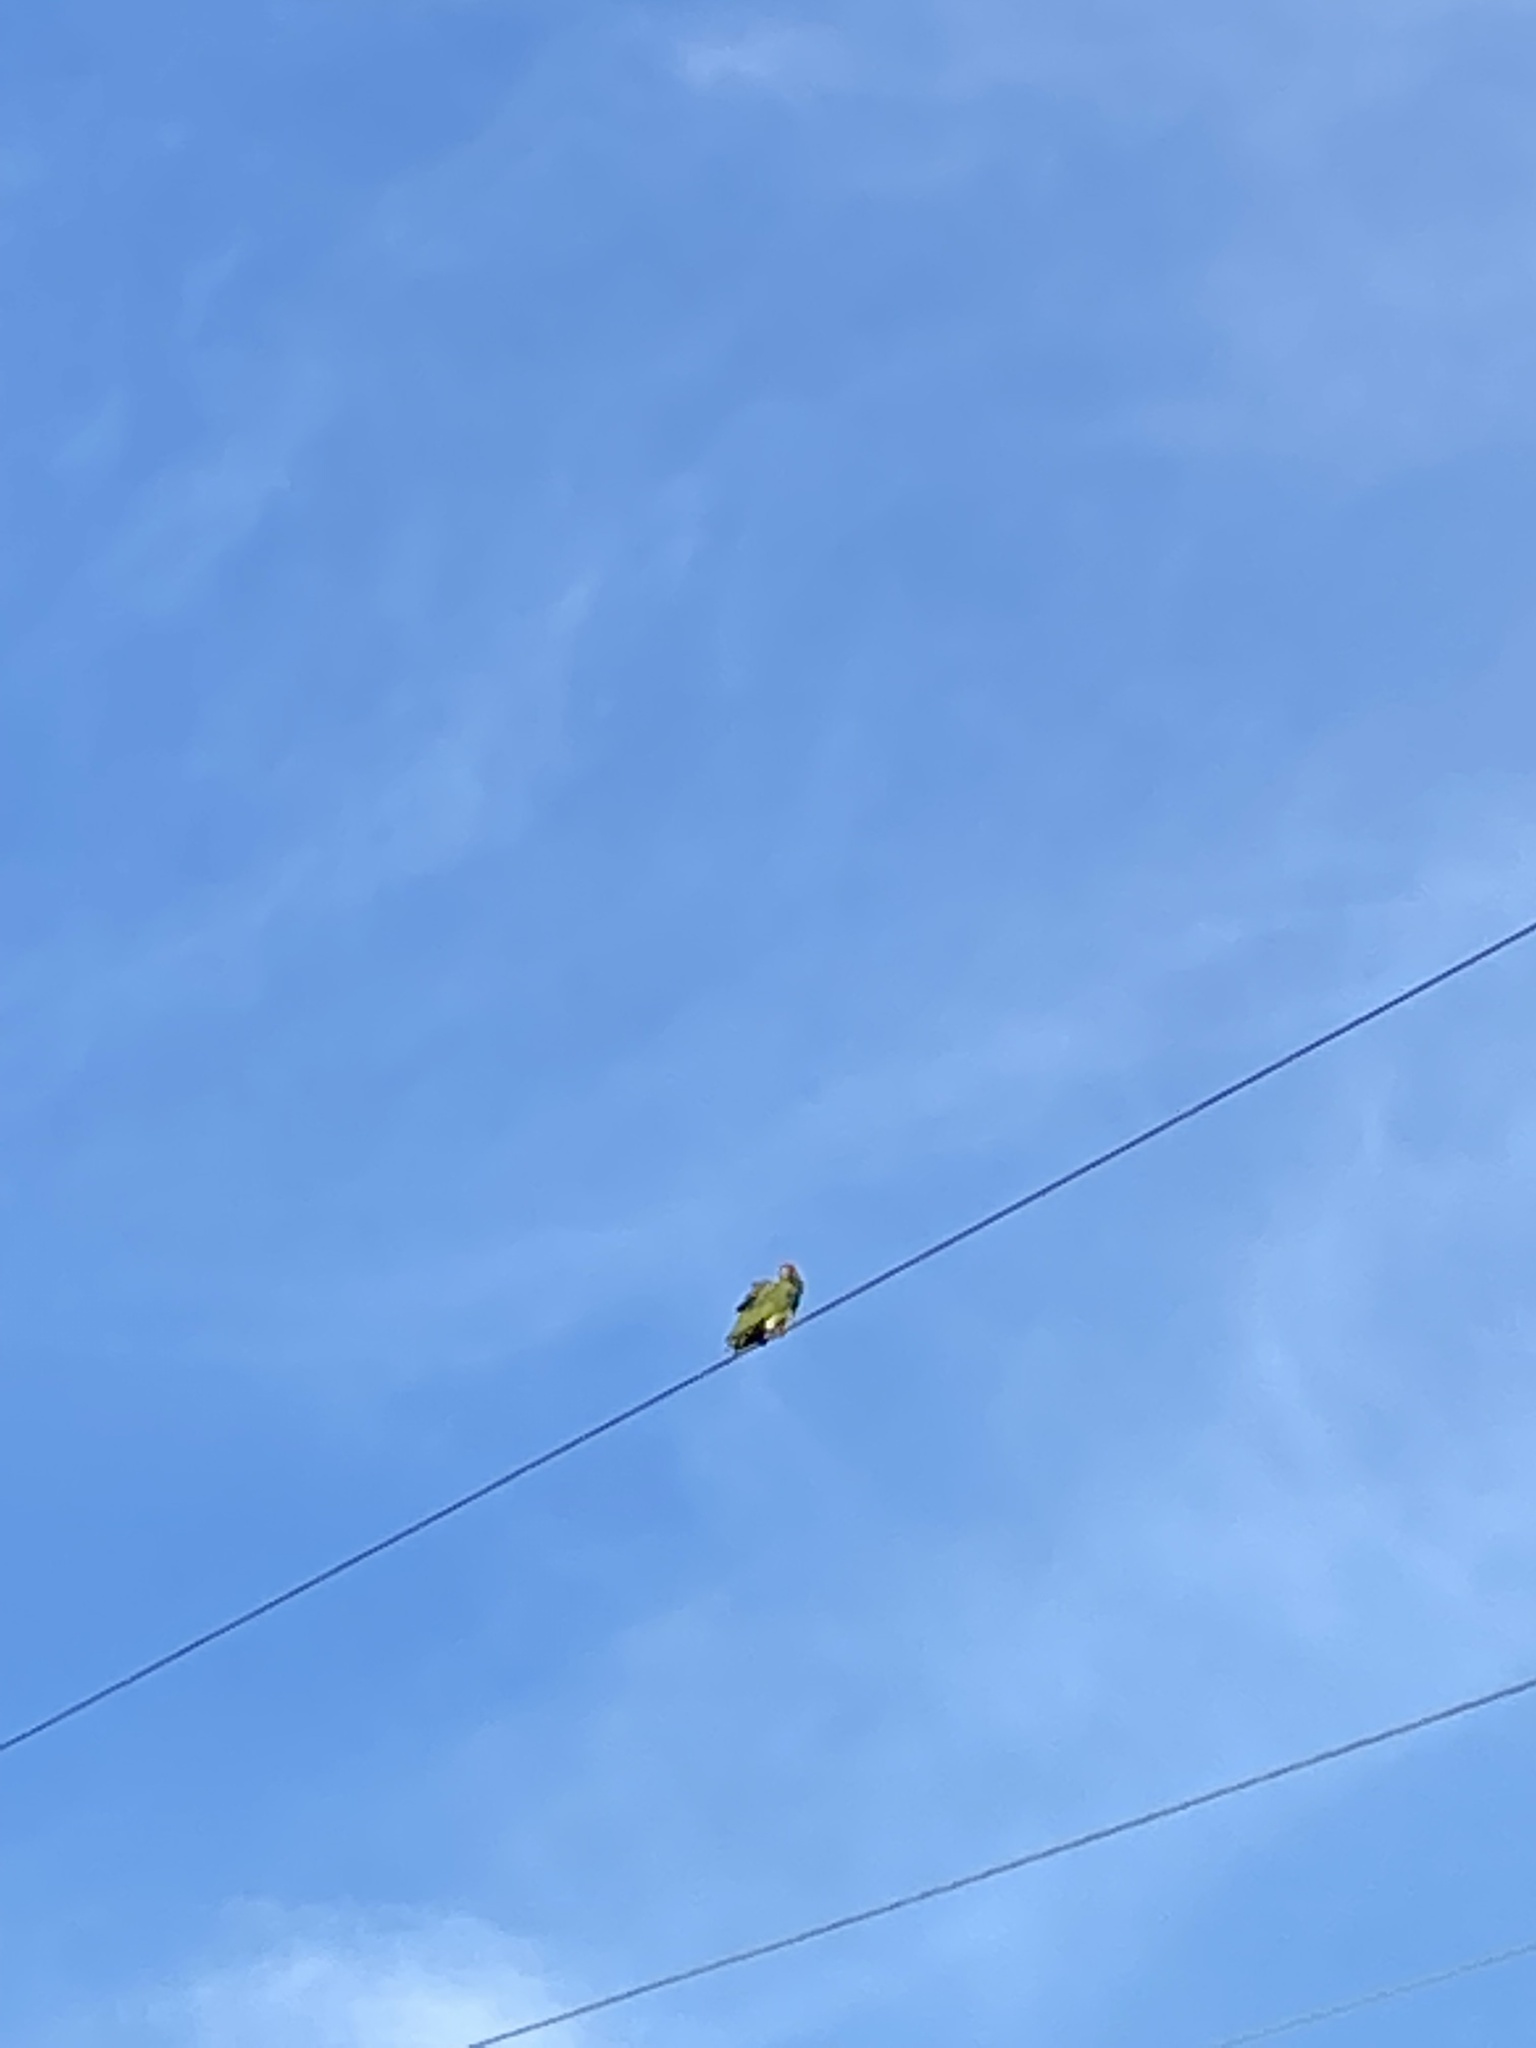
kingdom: Animalia
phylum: Chordata
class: Aves
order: Psittaciformes
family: Psittacidae
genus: Amazona
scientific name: Amazona viridigenalis
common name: Red-crowned amazon
